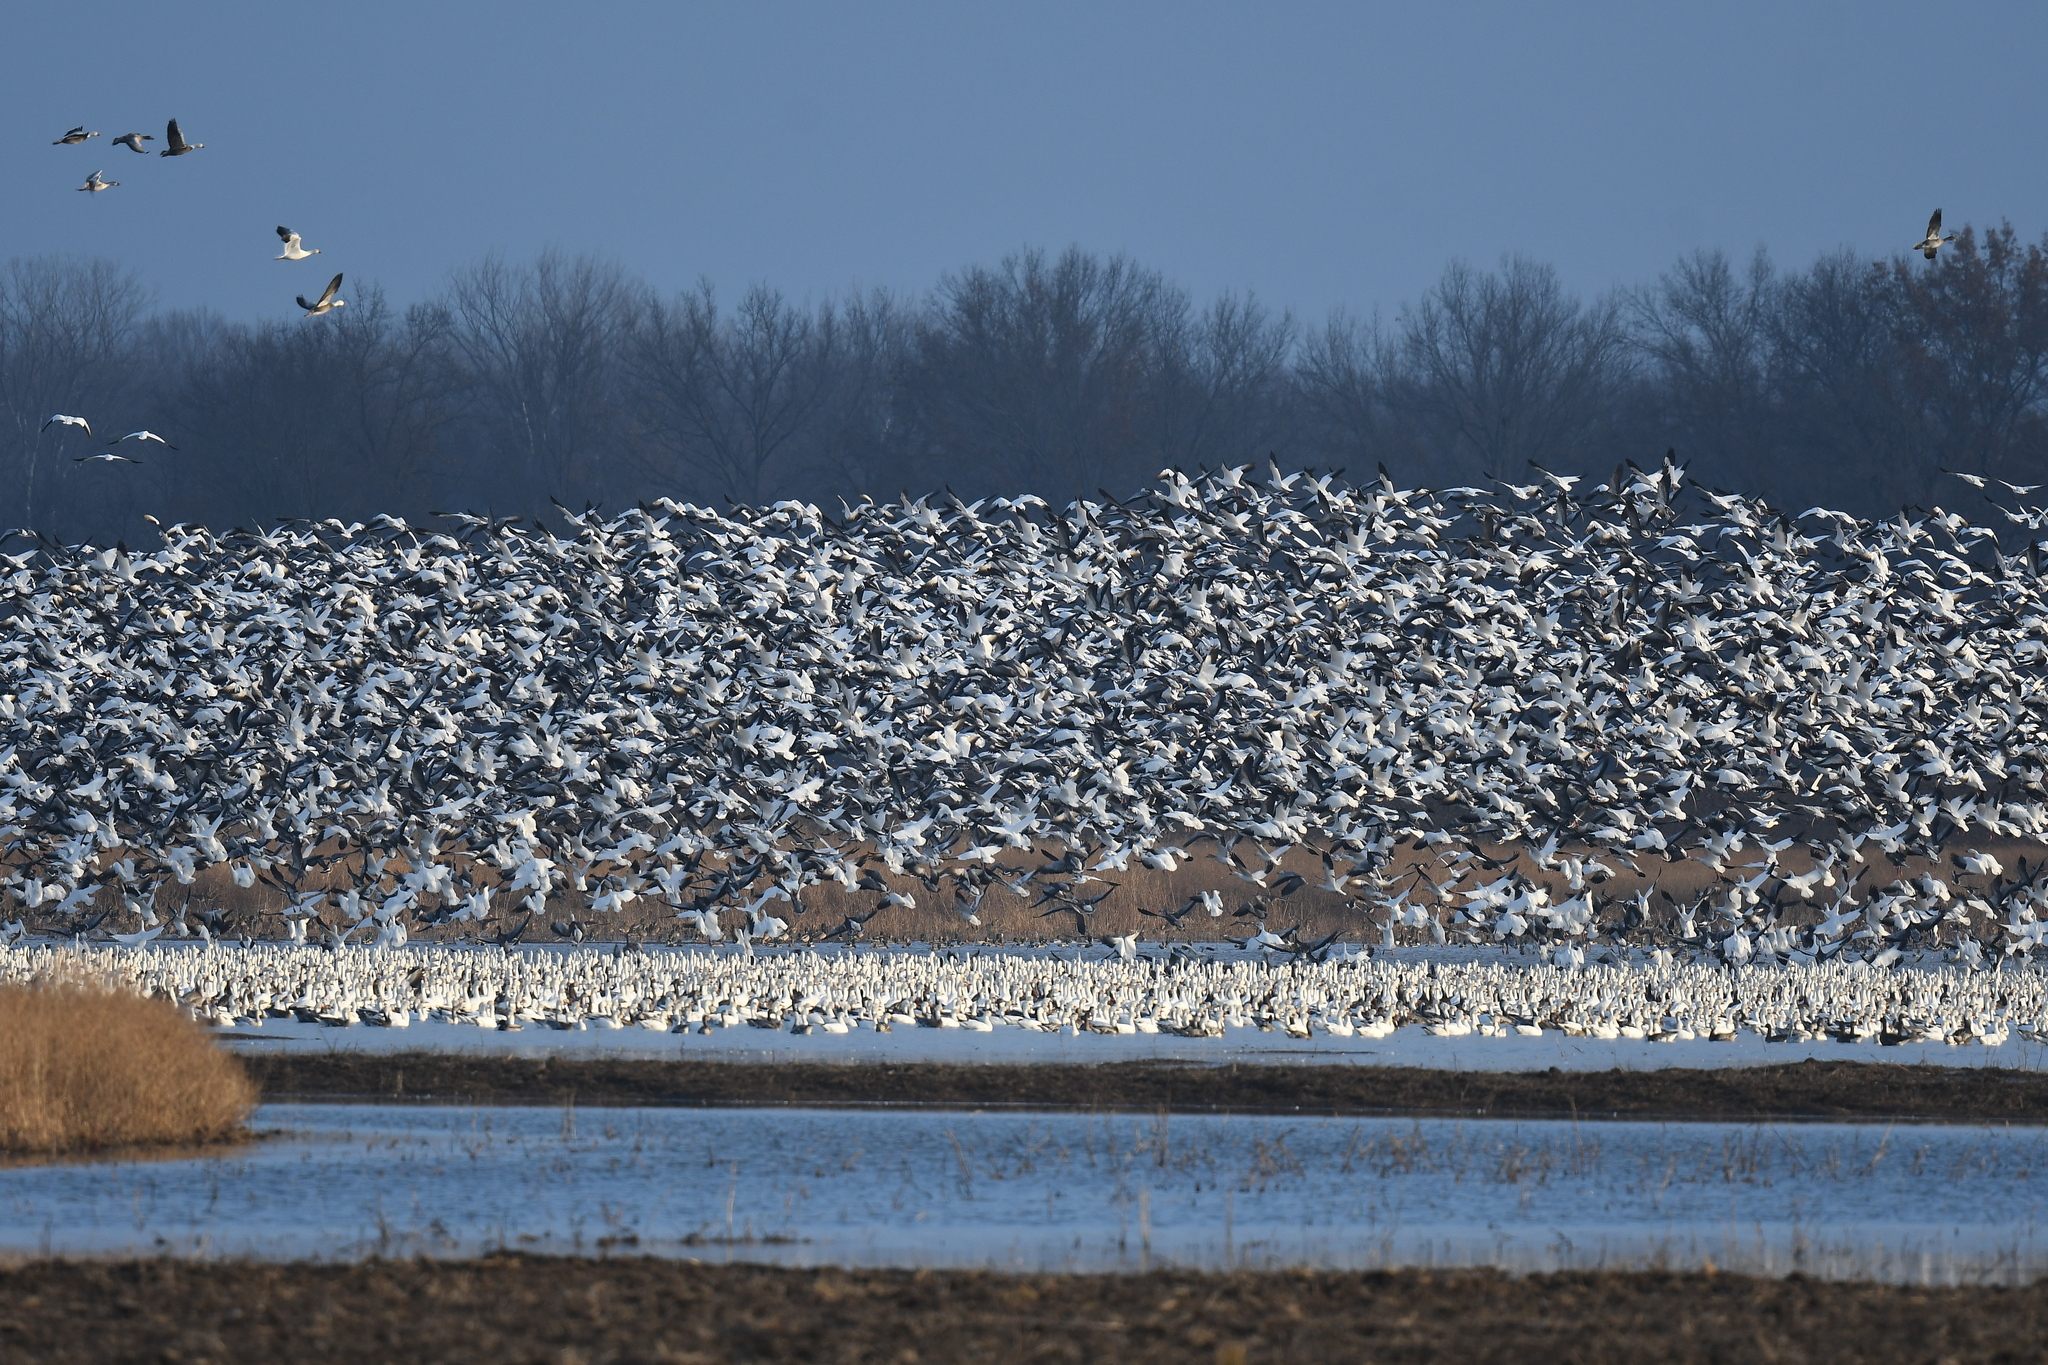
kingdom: Animalia
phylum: Chordata
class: Aves
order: Anseriformes
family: Anatidae
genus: Anser
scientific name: Anser caerulescens
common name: Snow goose
